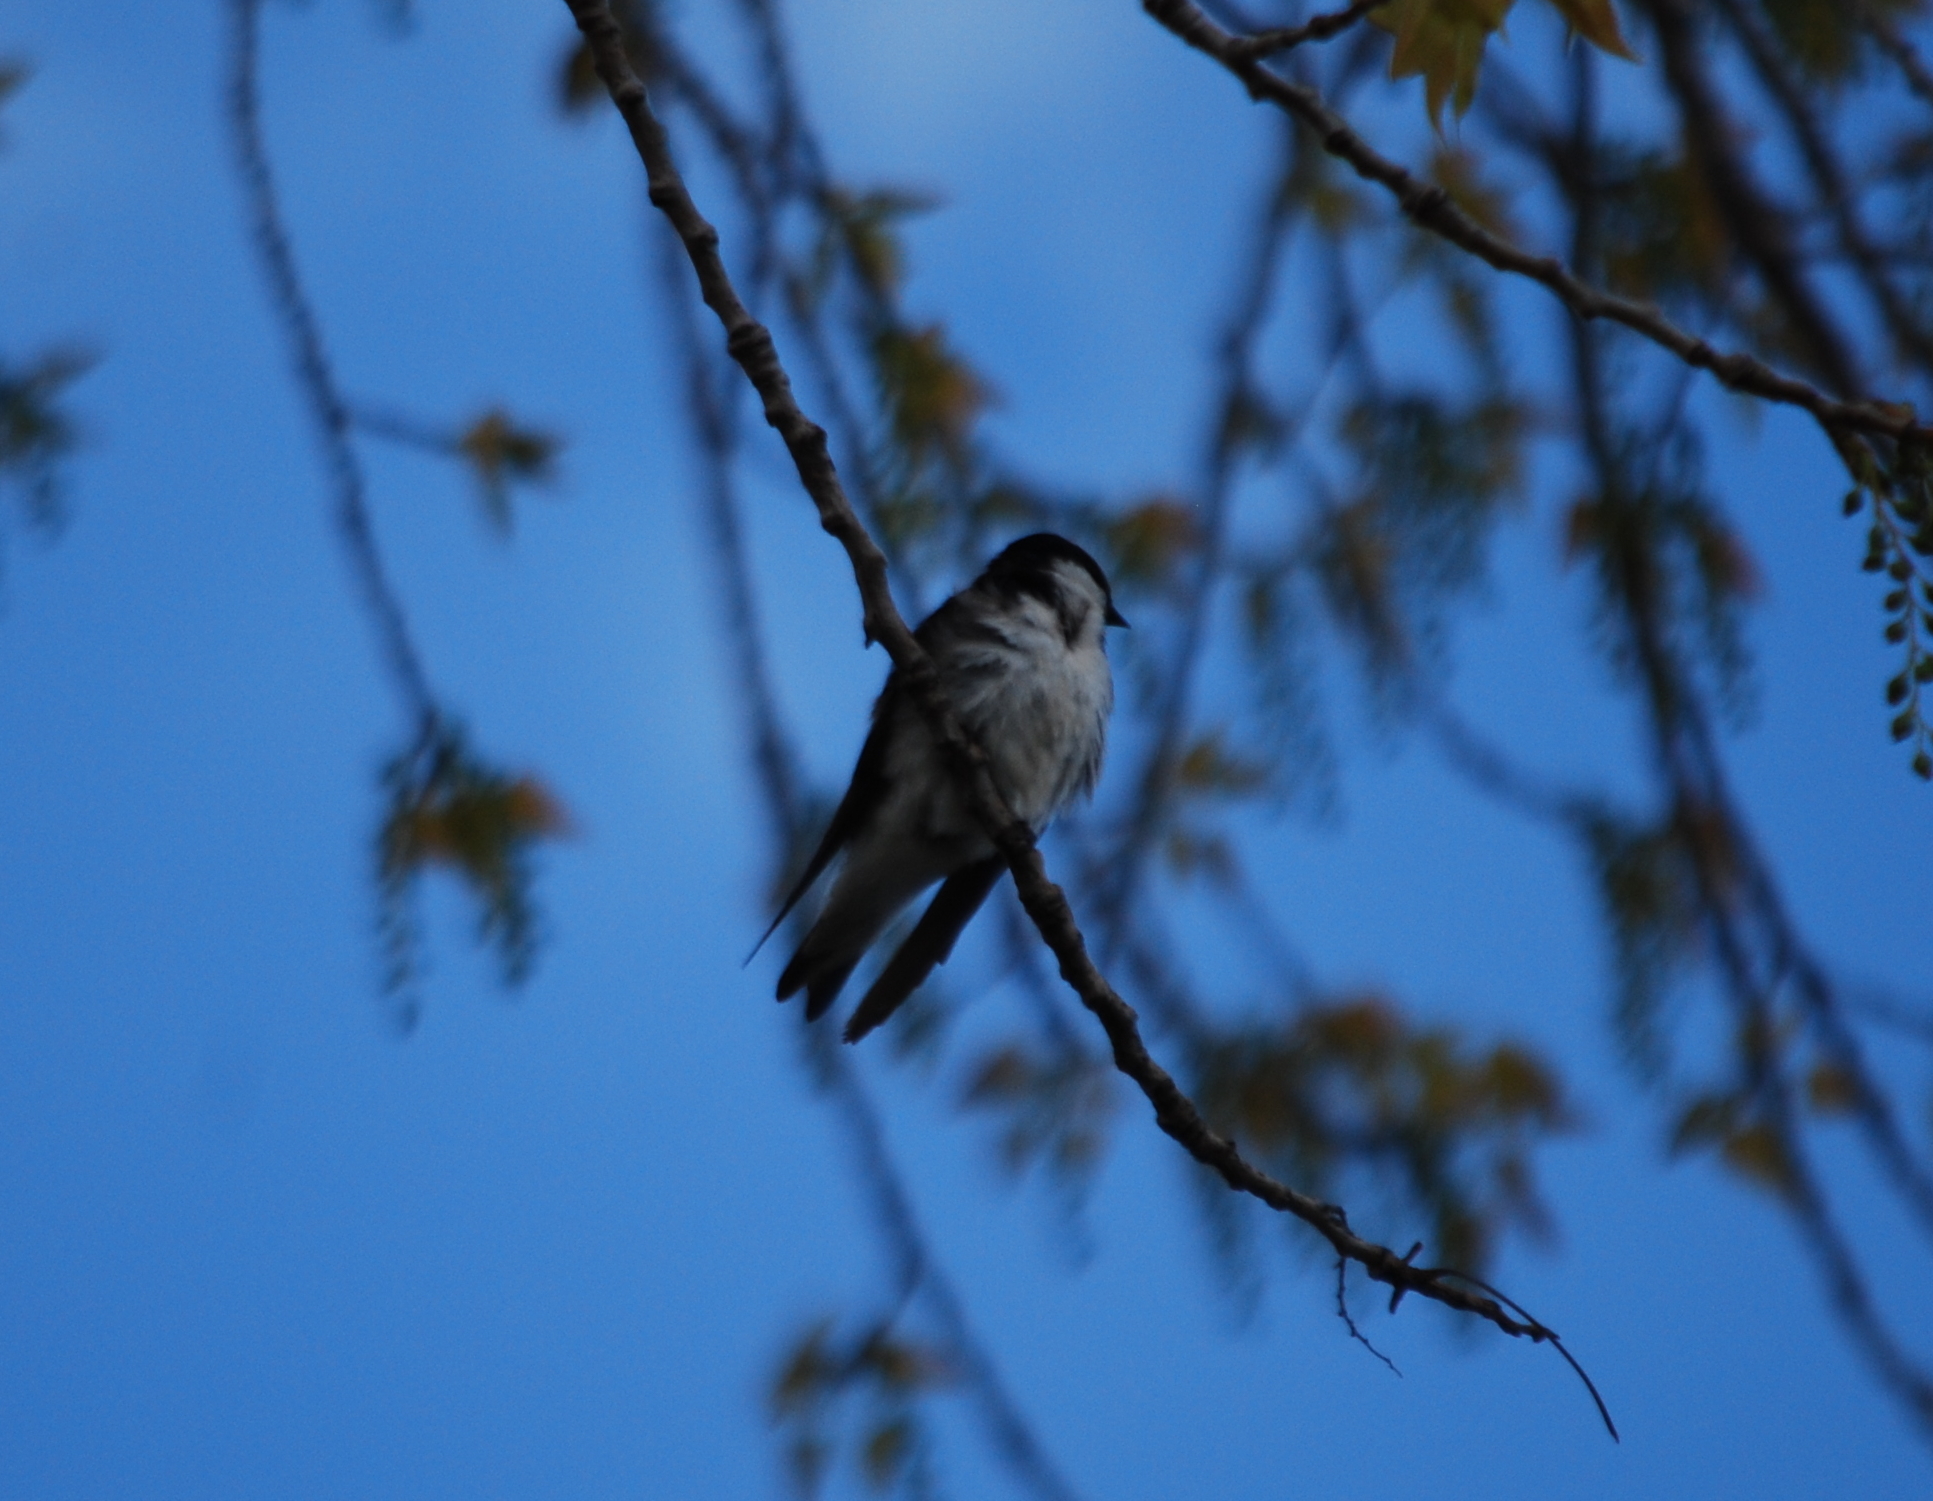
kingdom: Animalia
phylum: Chordata
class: Aves
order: Passeriformes
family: Hirundinidae
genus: Tachycineta
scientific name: Tachycineta bicolor
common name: Tree swallow
